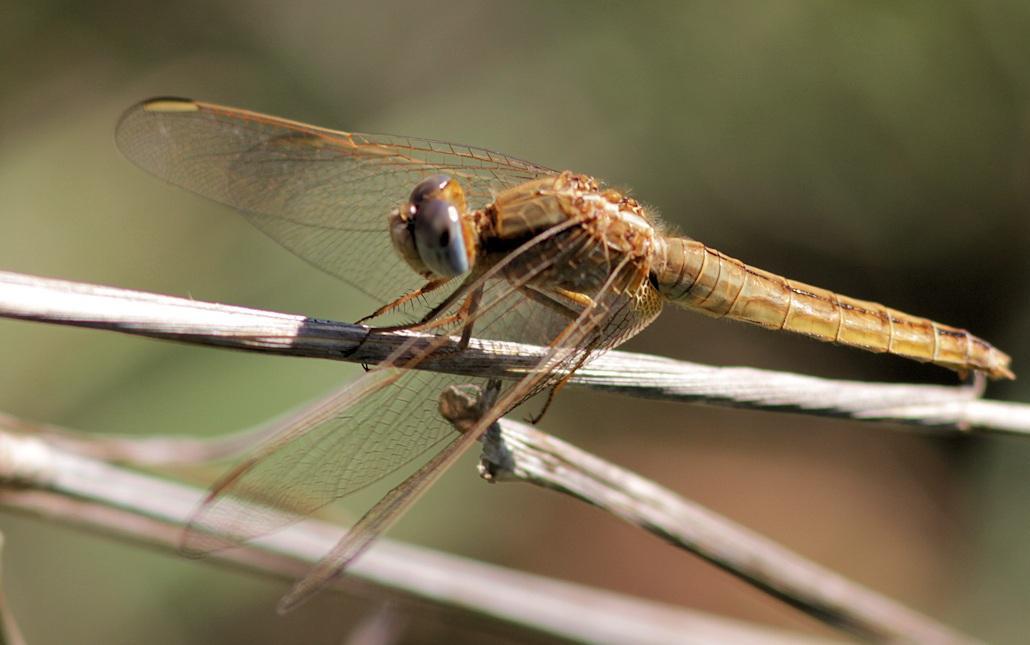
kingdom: Animalia
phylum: Arthropoda
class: Insecta
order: Odonata
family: Libellulidae
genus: Crocothemis
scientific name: Crocothemis erythraea
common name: Scarlet dragonfly
